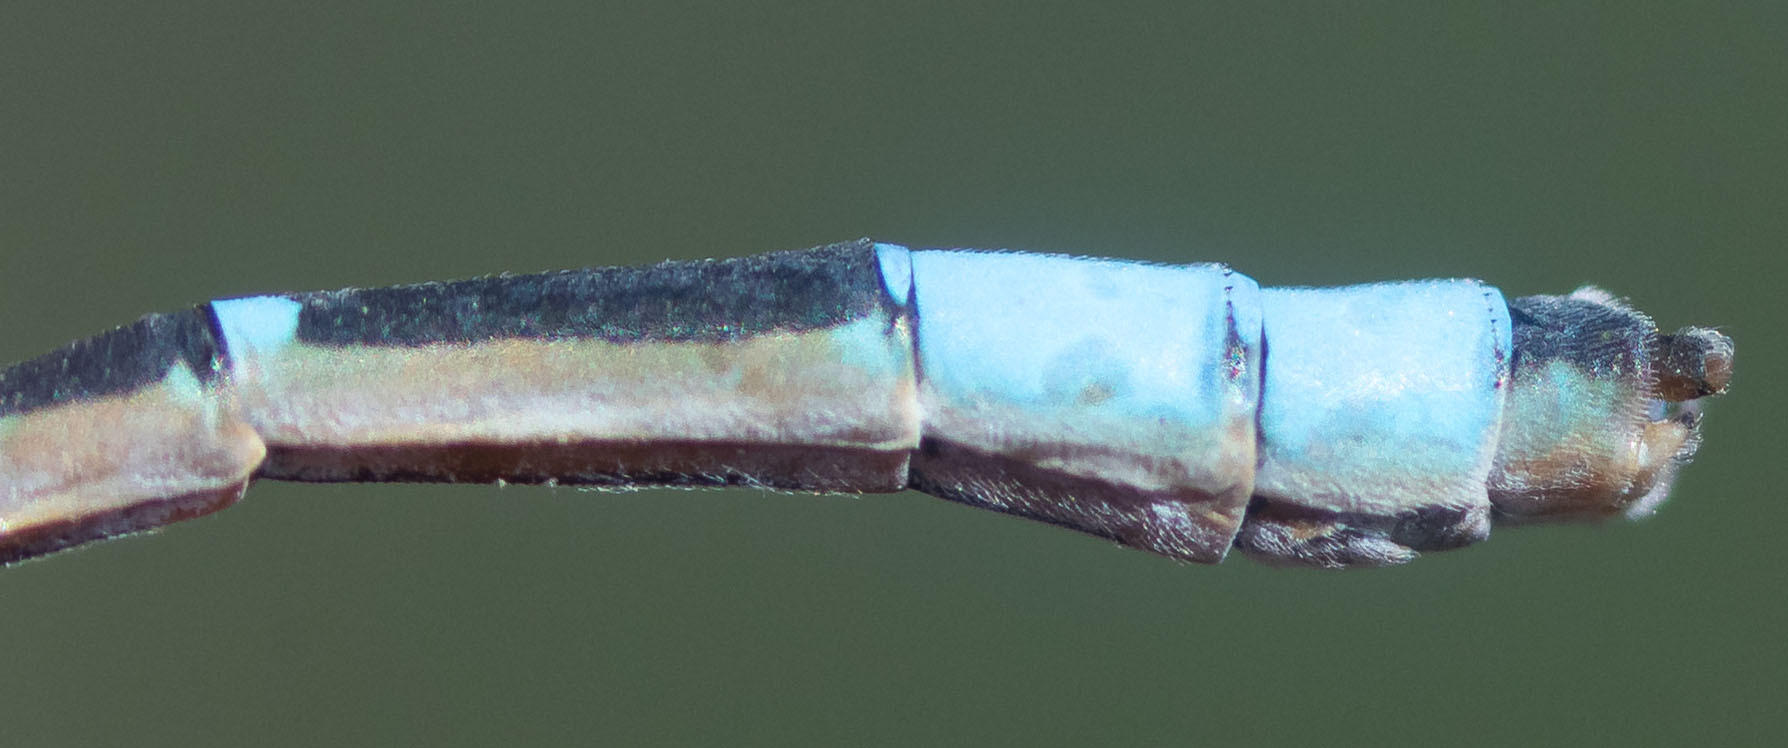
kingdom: Animalia
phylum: Arthropoda
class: Insecta
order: Odonata
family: Coenagrionidae
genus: Enallagma
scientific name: Enallagma carunculatum
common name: Tule bluet
